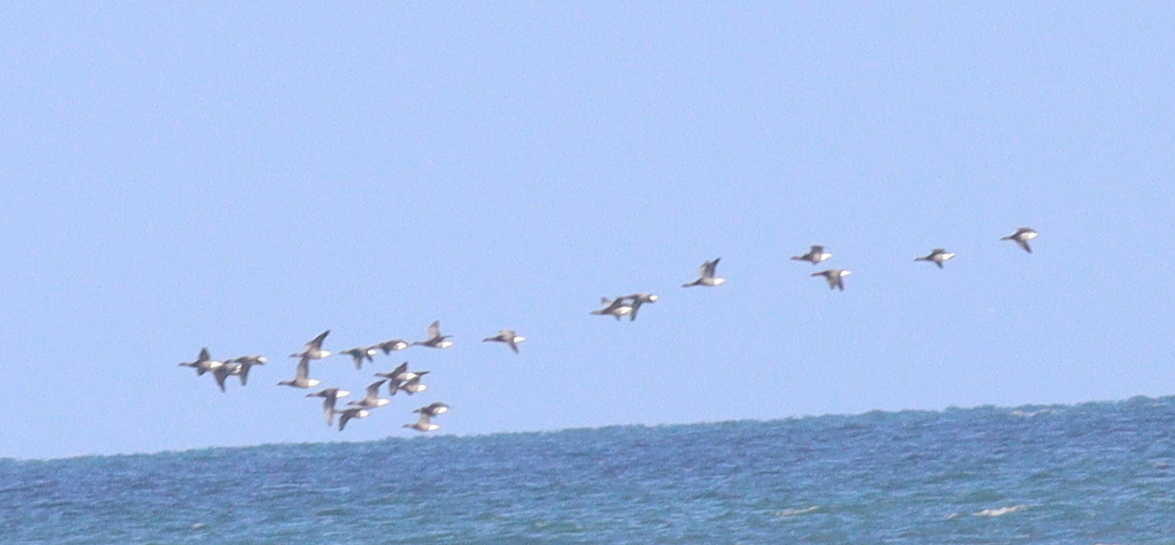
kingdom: Animalia
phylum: Chordata
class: Aves
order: Anseriformes
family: Anatidae
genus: Branta
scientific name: Branta bernicla
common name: Brant goose
